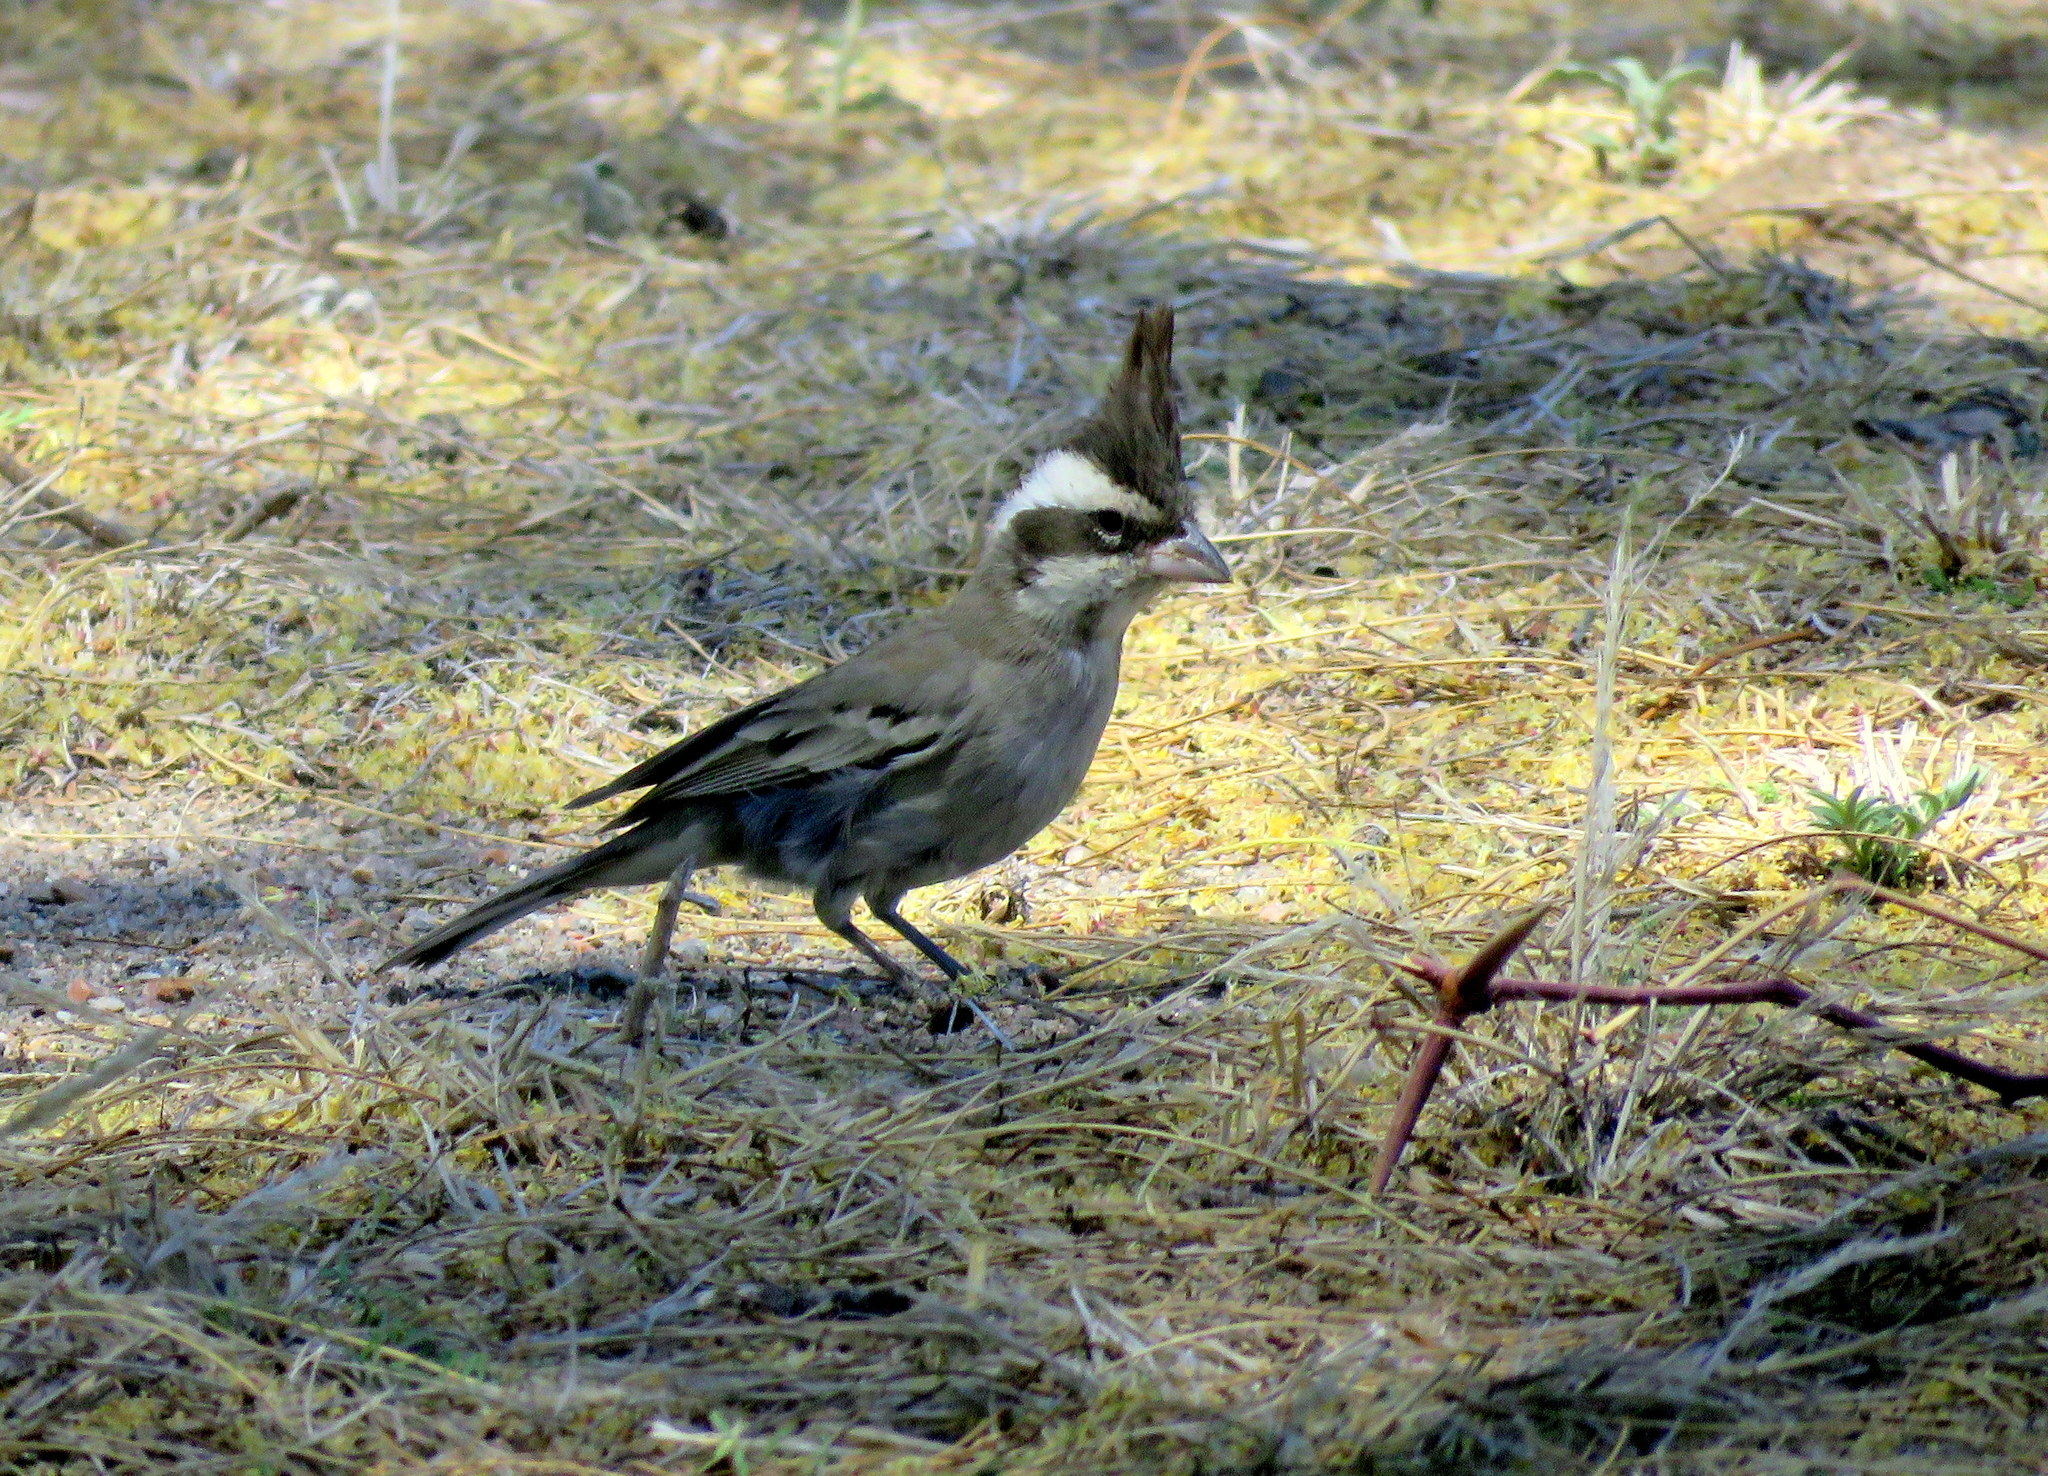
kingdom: Animalia
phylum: Chordata
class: Aves
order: Passeriformes
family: Thraupidae
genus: Lophospingus
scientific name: Lophospingus pusillus
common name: Black-crested finch
